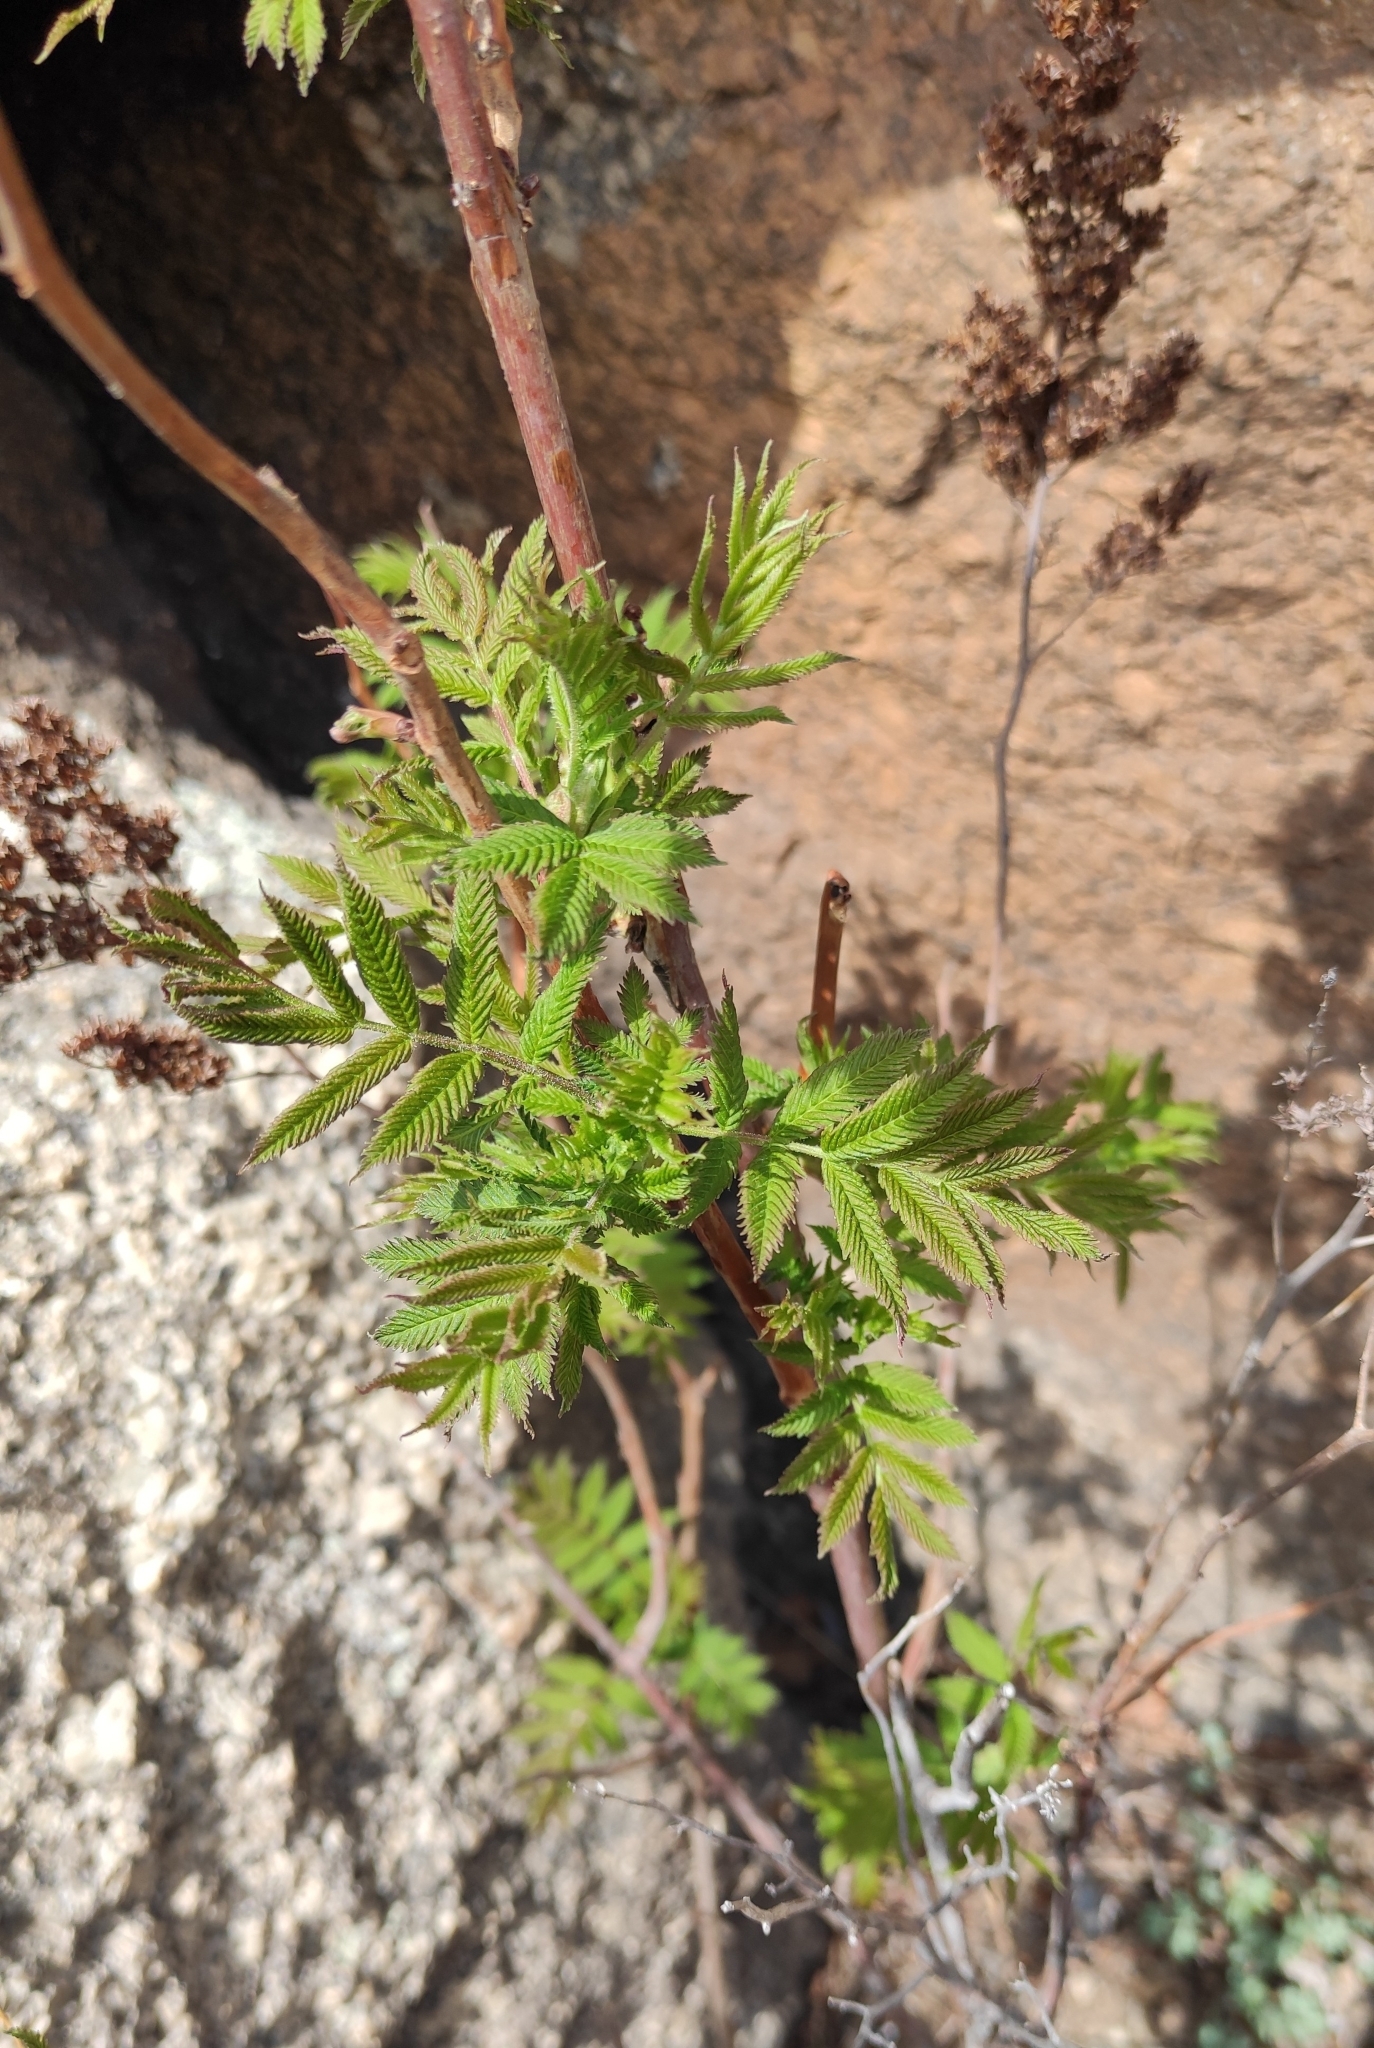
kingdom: Plantae
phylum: Tracheophyta
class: Magnoliopsida
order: Rosales
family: Rosaceae
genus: Sorbaria
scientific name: Sorbaria sorbifolia
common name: False spiraea
